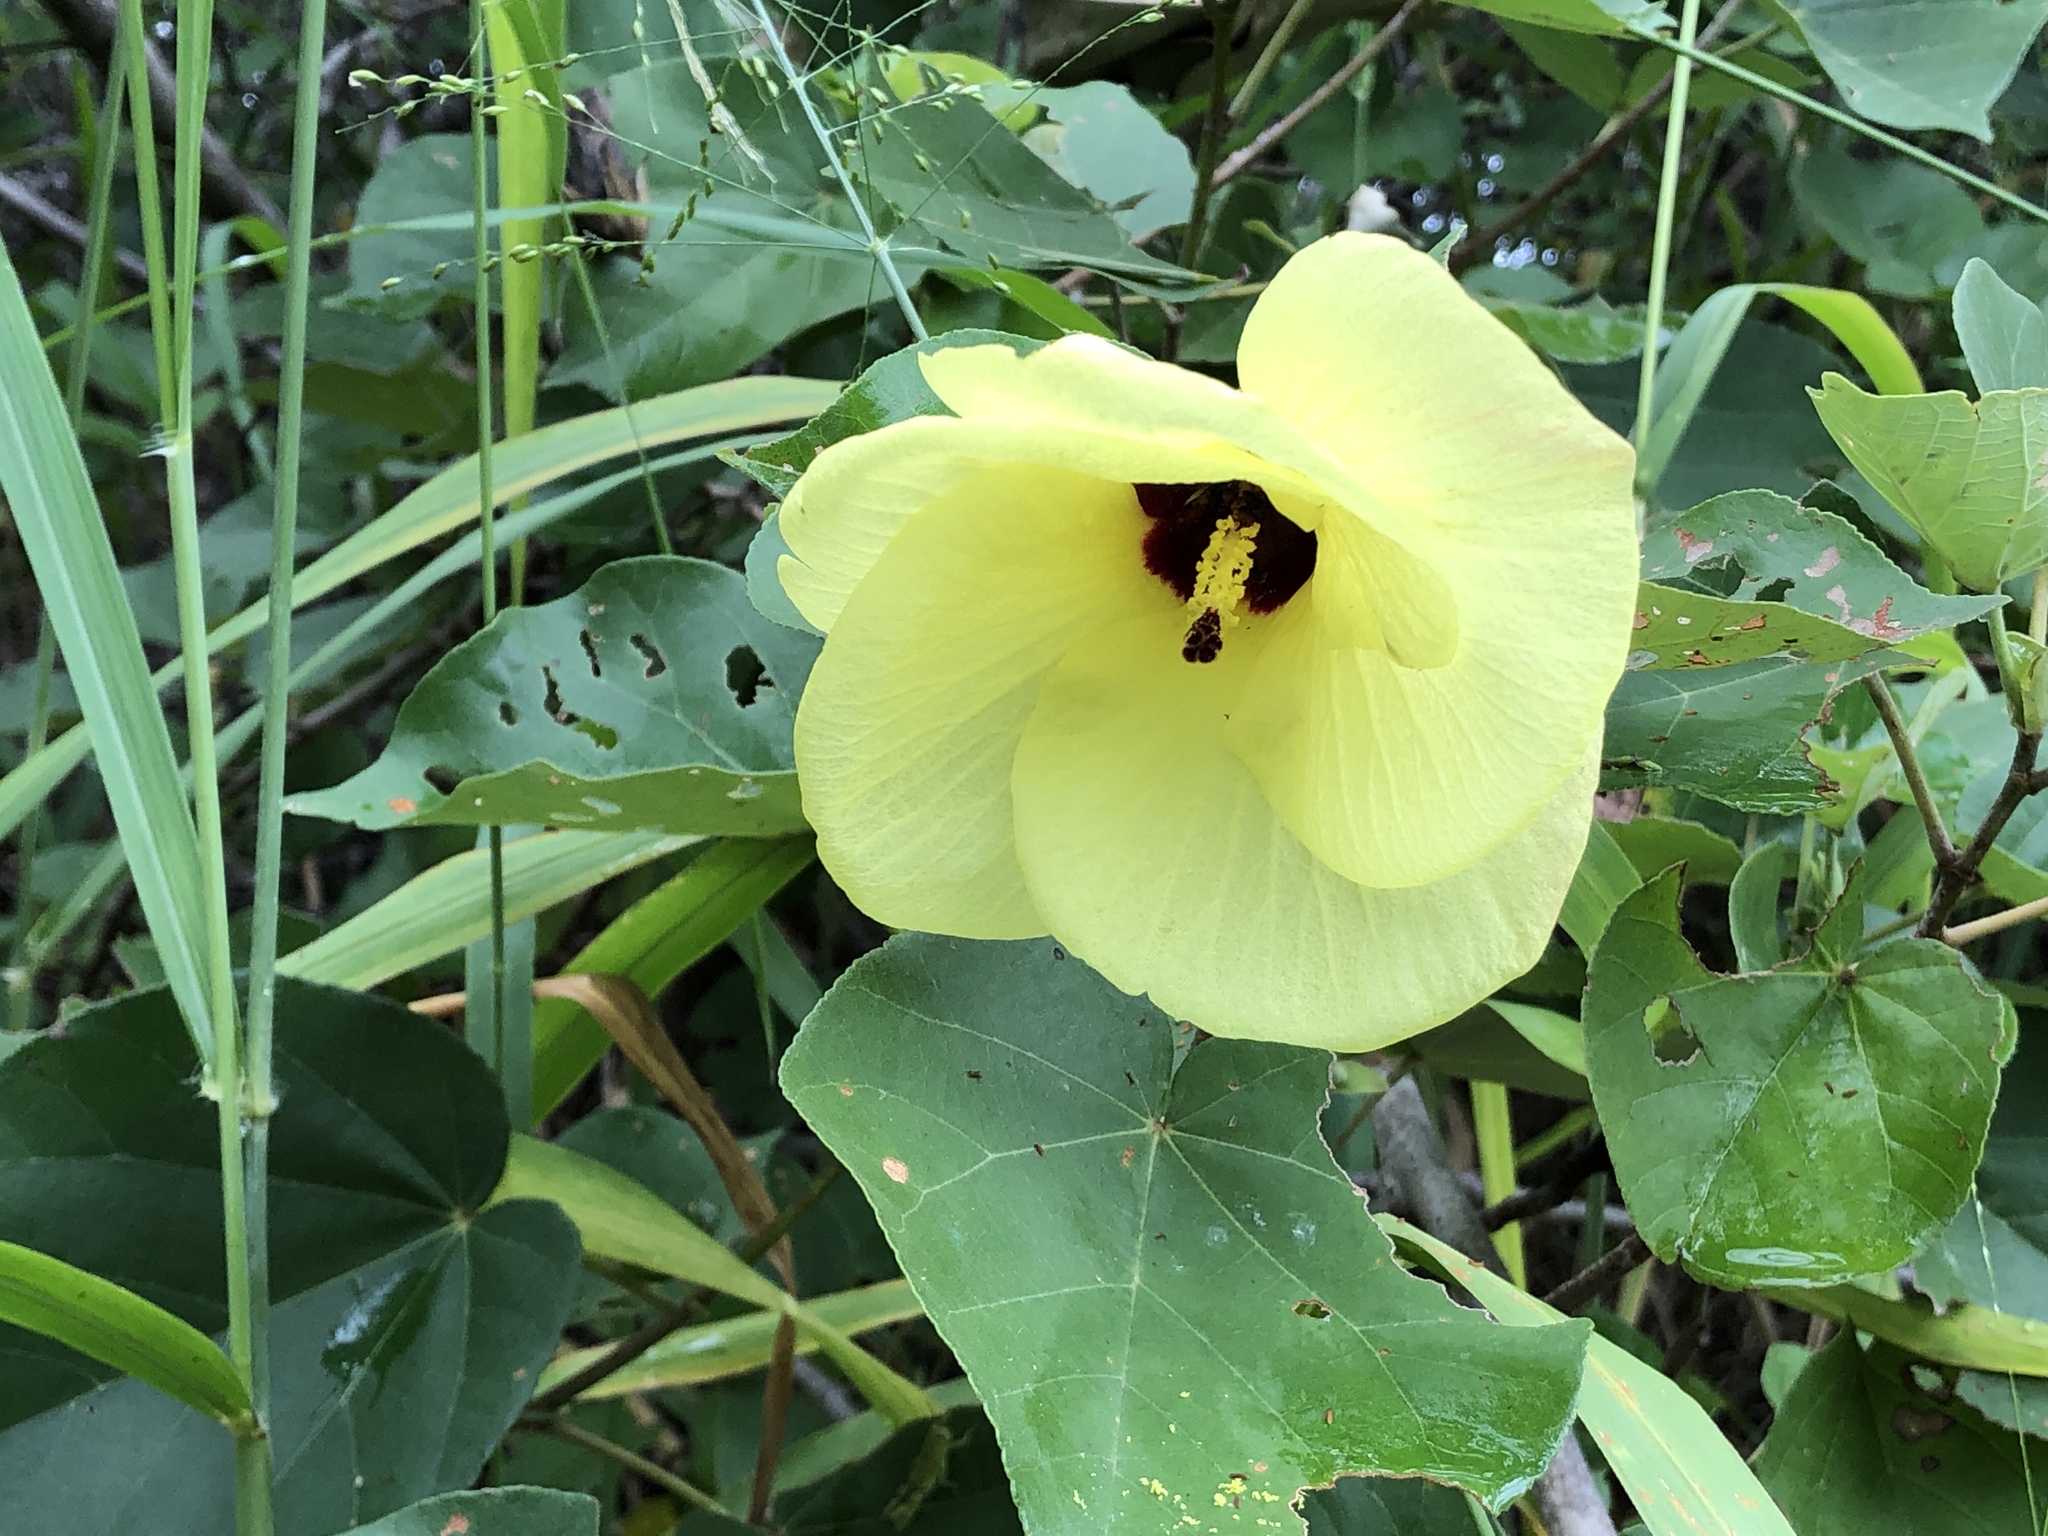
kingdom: Plantae
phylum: Tracheophyta
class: Magnoliopsida
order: Malvales
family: Malvaceae
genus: Talipariti
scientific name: Talipariti tiliaceum
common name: Sea hibiscus
